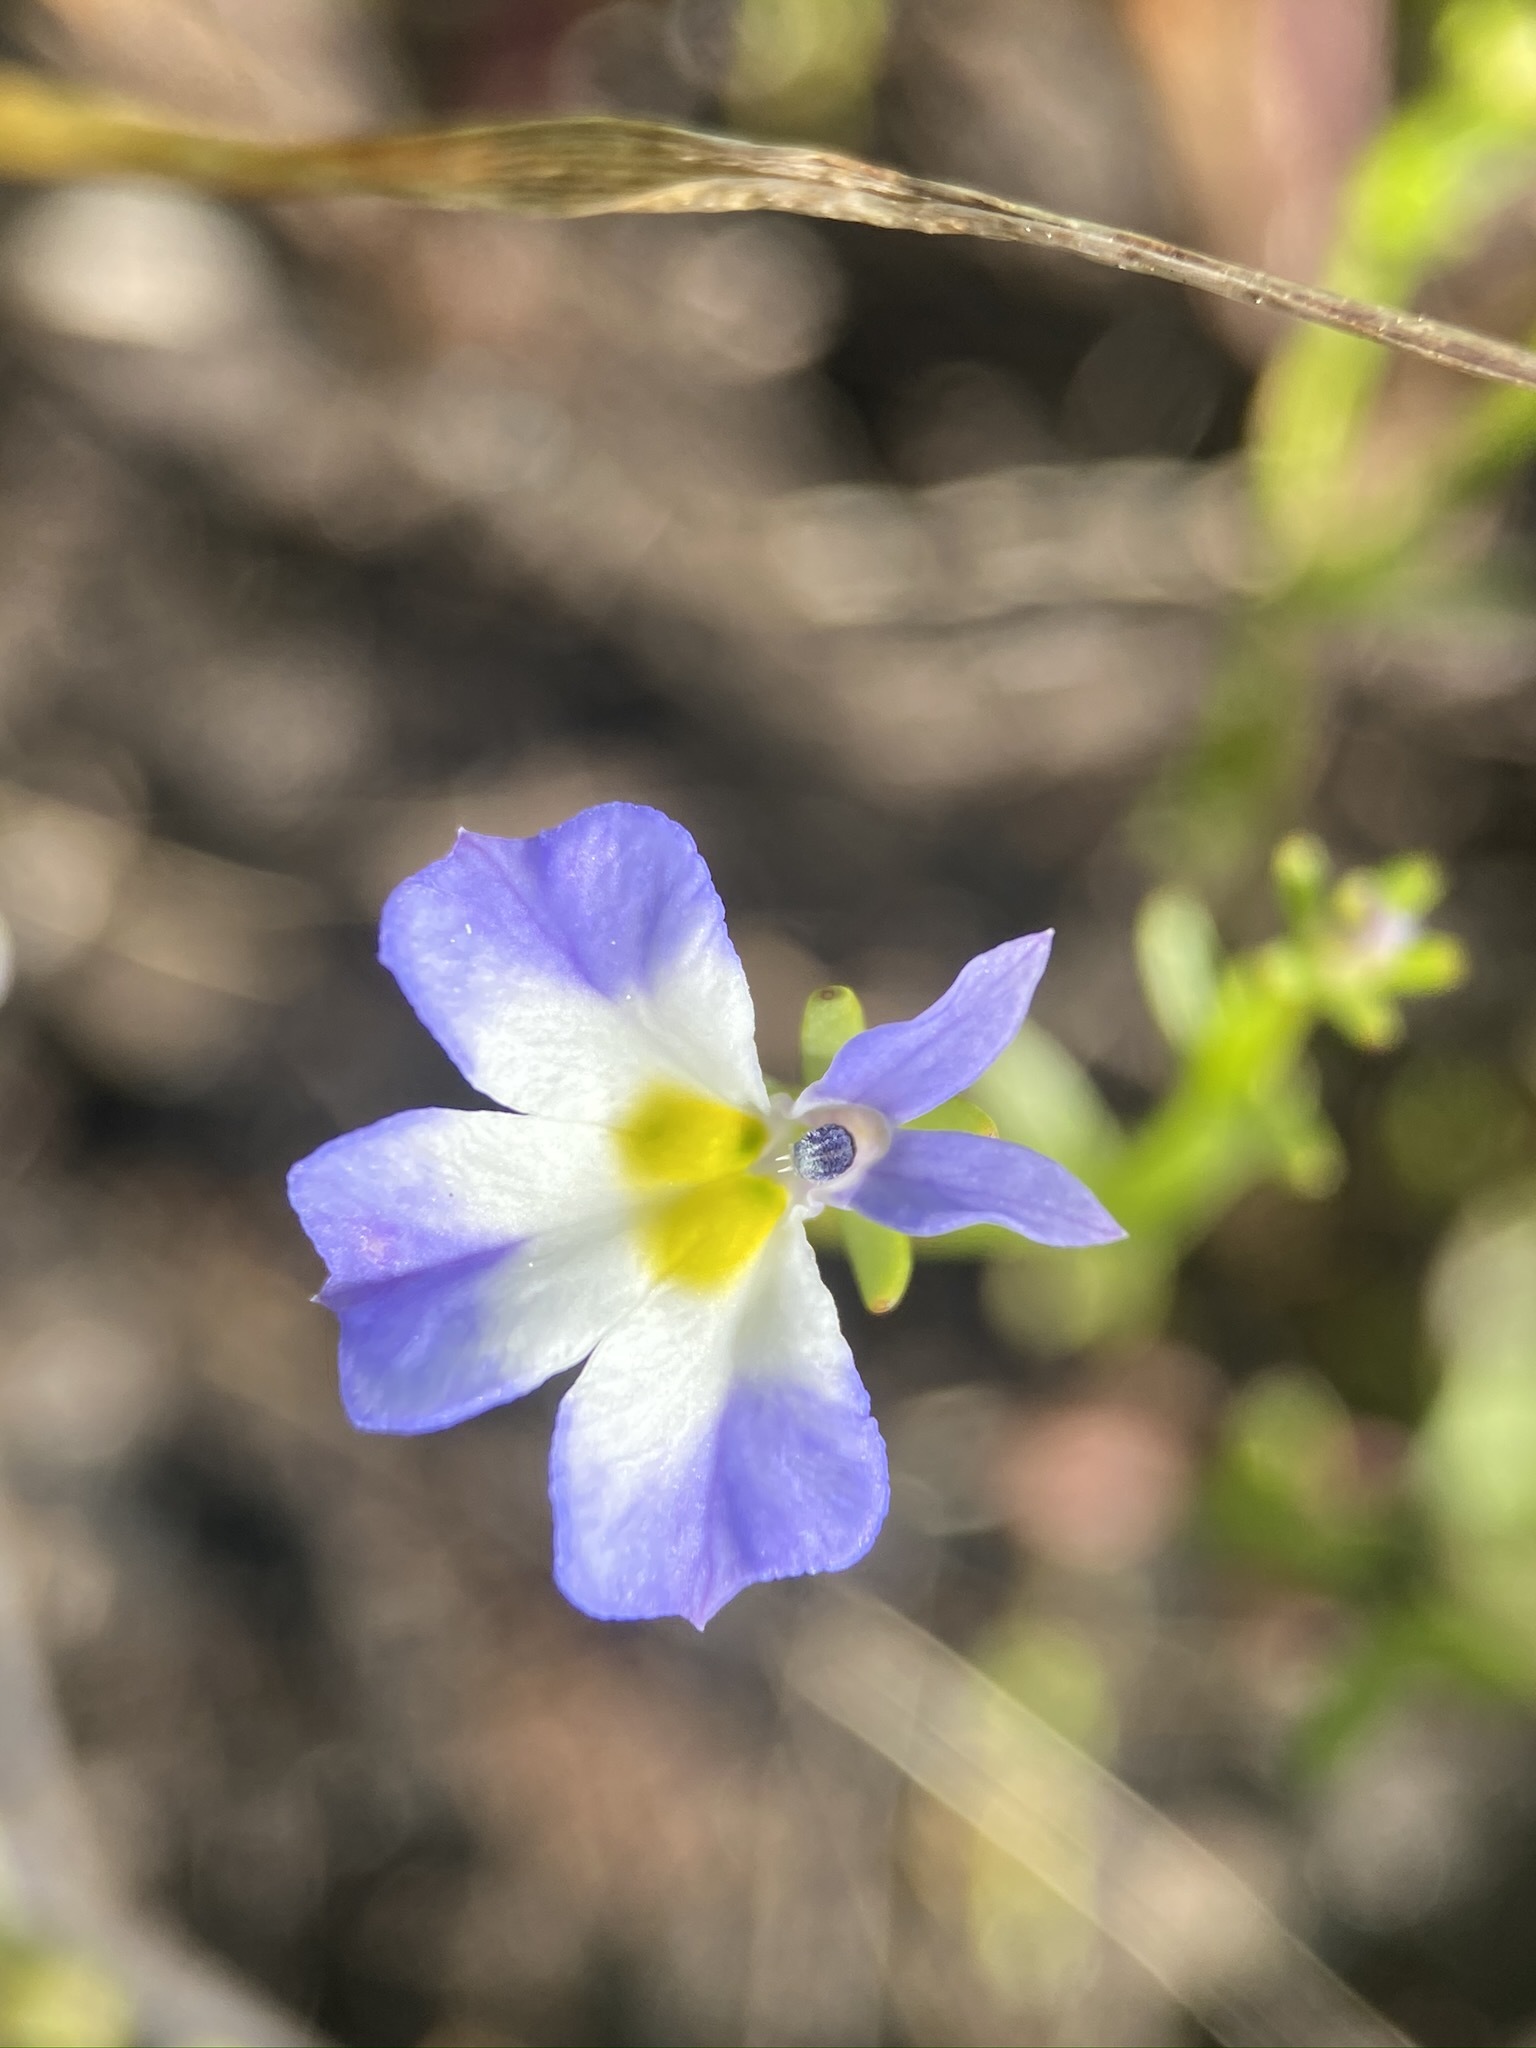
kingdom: Plantae
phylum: Tracheophyta
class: Magnoliopsida
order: Asterales
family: Campanulaceae
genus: Downingia
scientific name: Downingia cuspidata
